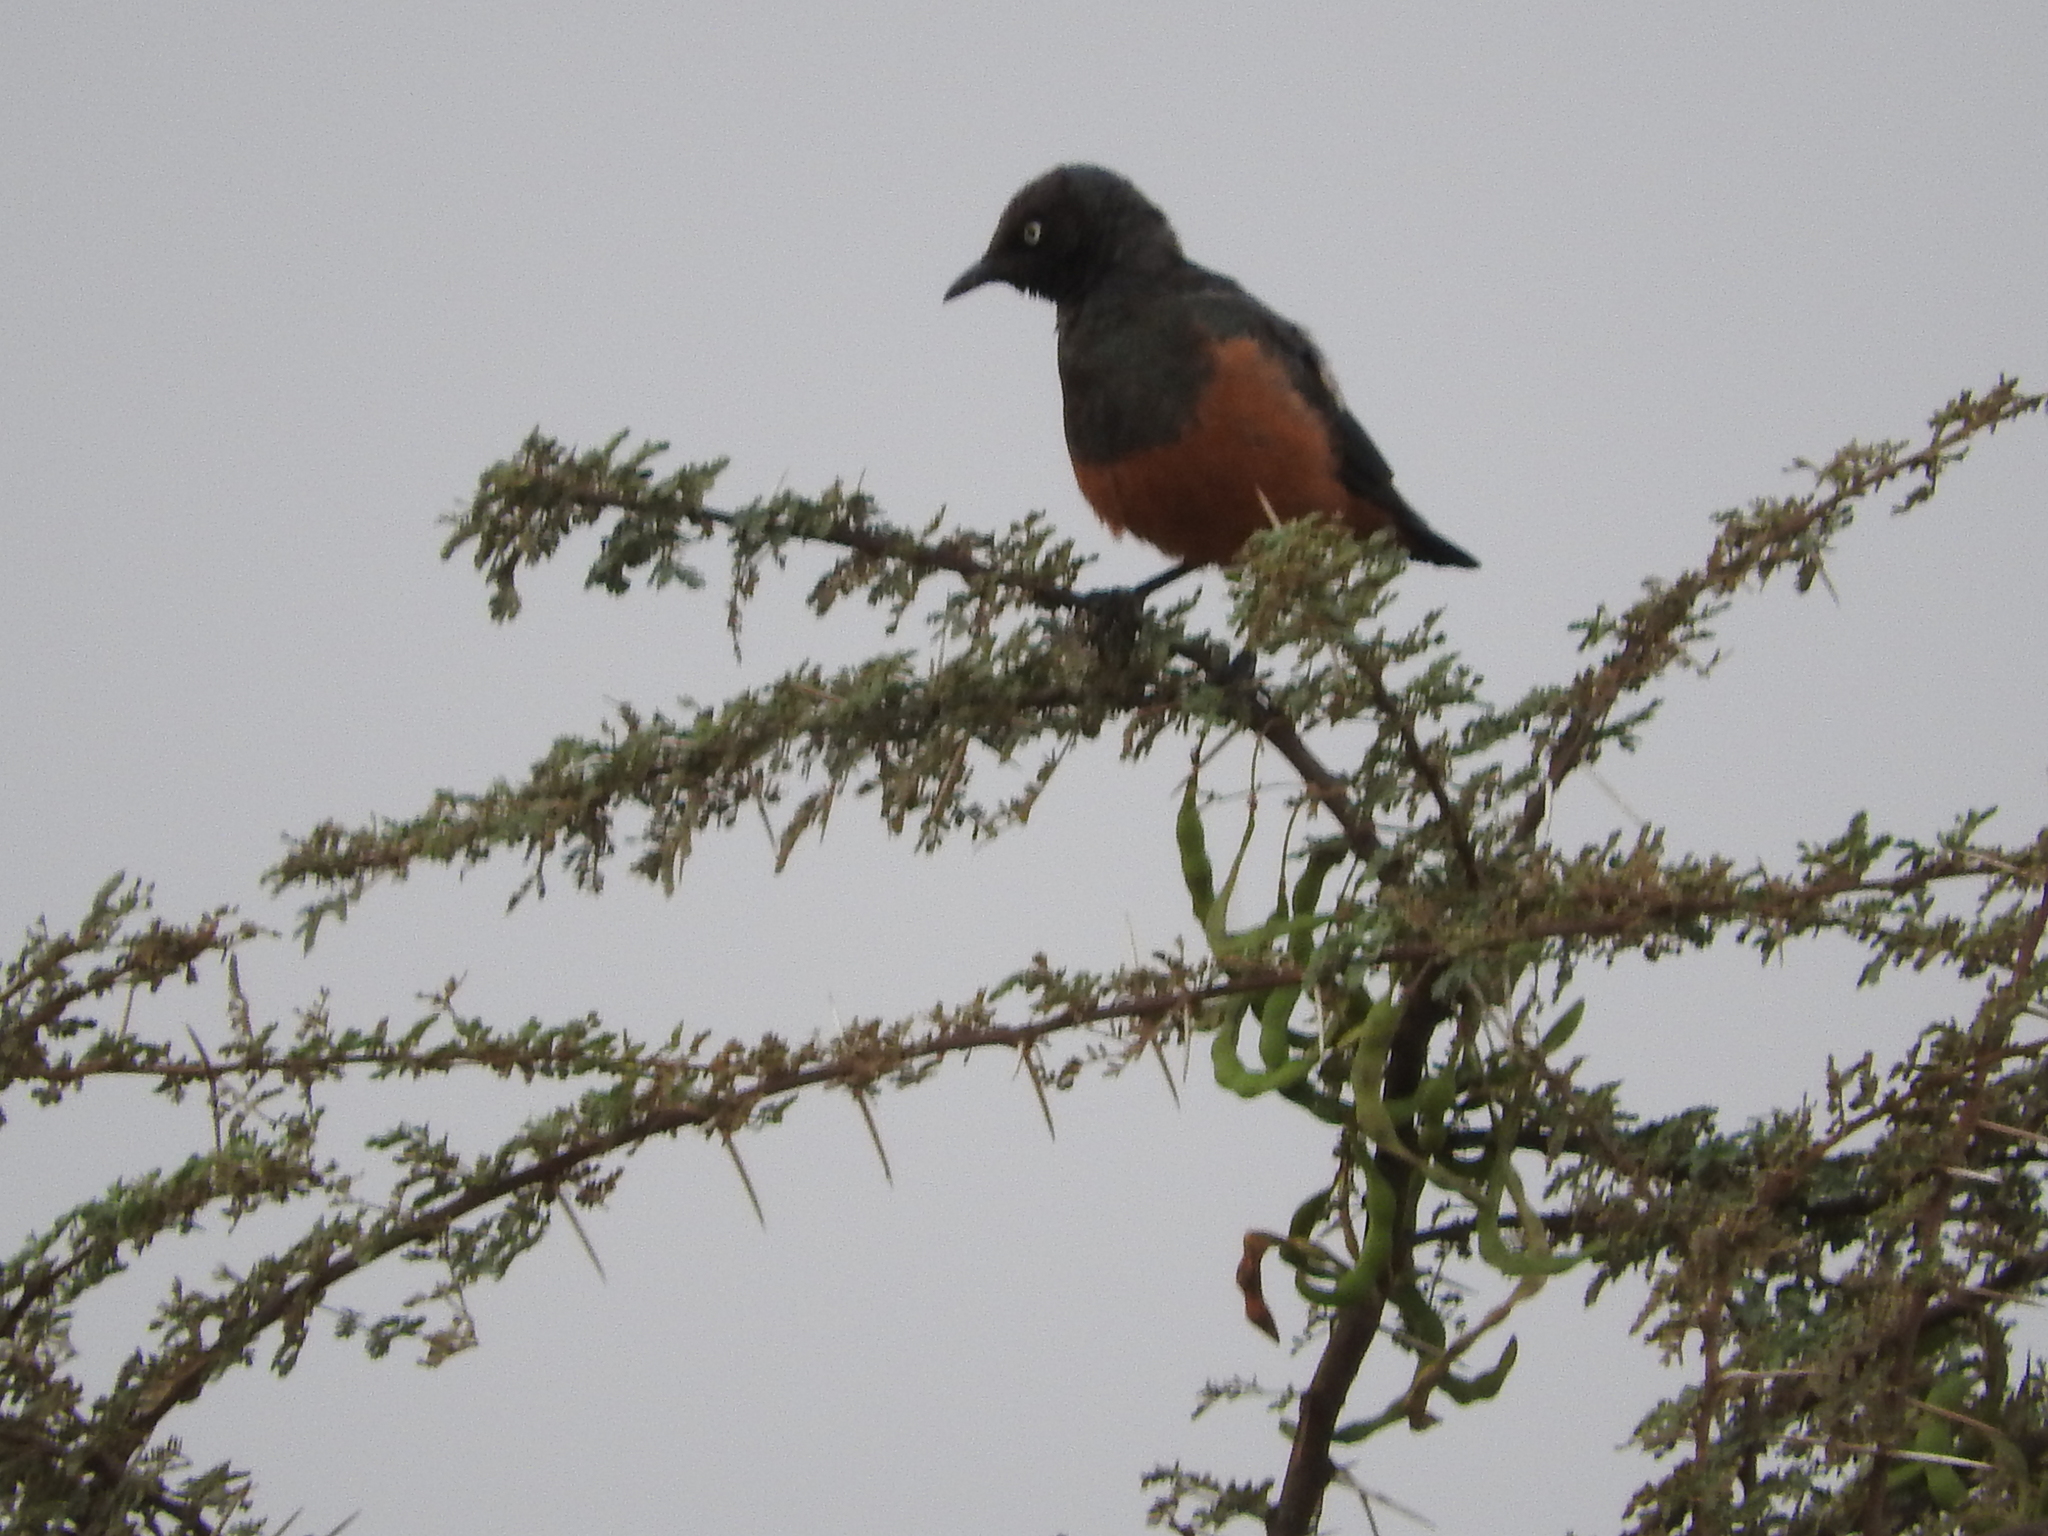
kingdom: Animalia
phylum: Chordata
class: Aves
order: Passeriformes
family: Sturnidae
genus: Lamprotornis
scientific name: Lamprotornis pulcher
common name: Chestnut-bellied starling
